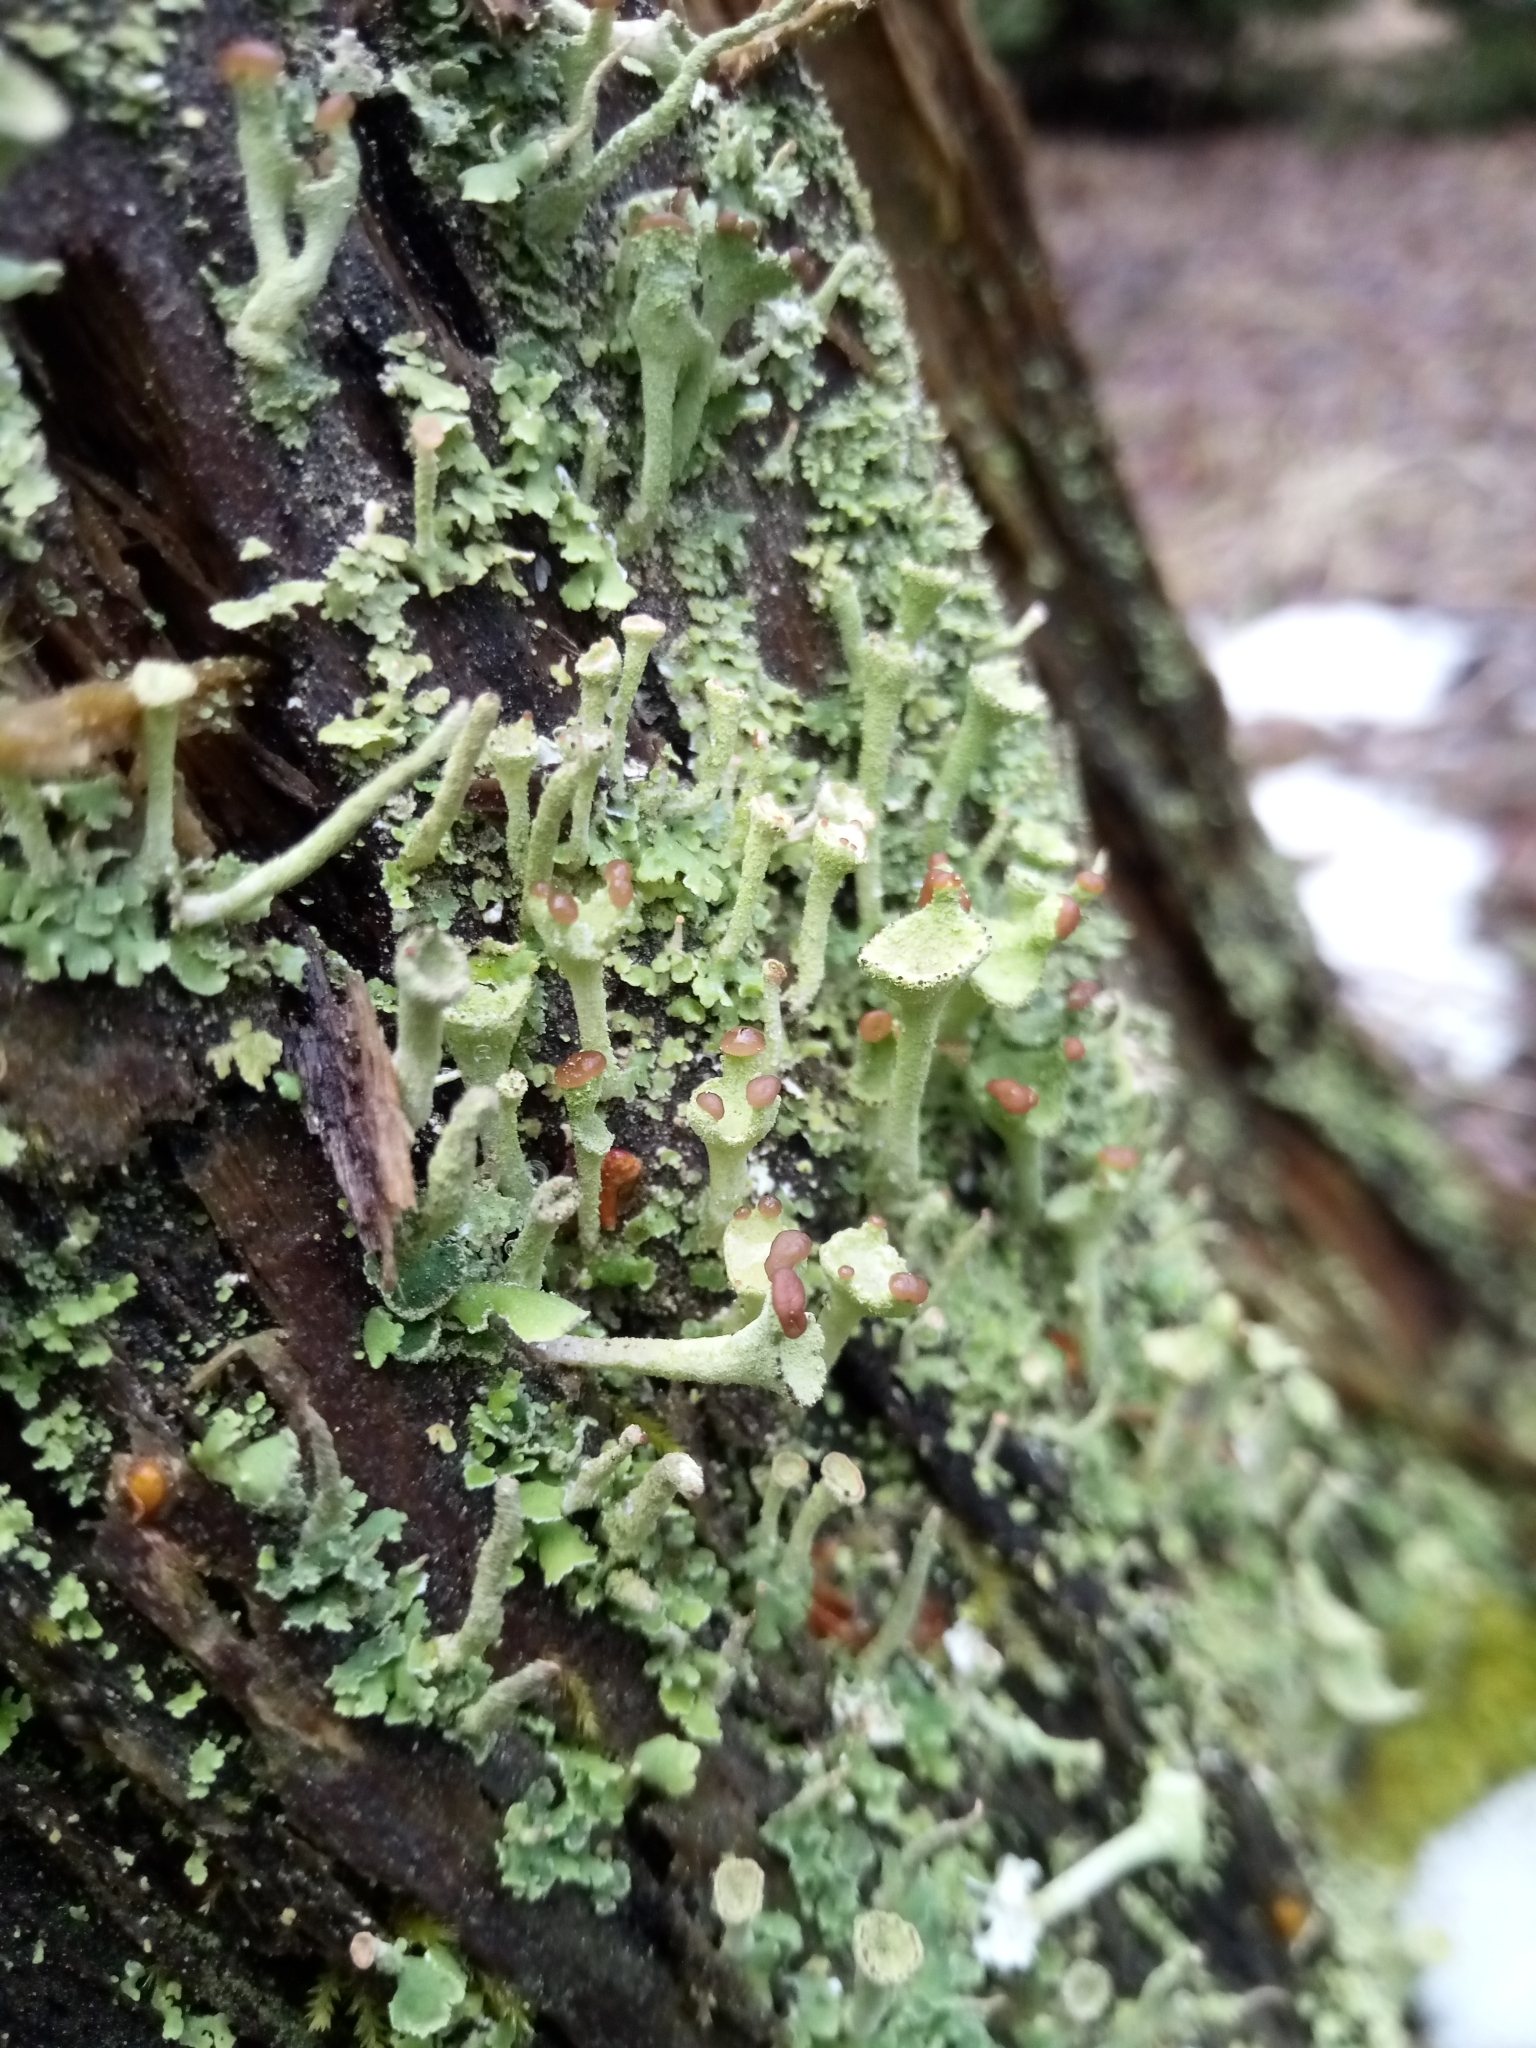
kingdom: Fungi
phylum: Ascomycota
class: Lecanoromycetes
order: Lecanorales
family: Cladoniaceae
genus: Cladonia
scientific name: Cladonia fimbriata
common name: Powdered trumpet lichen
